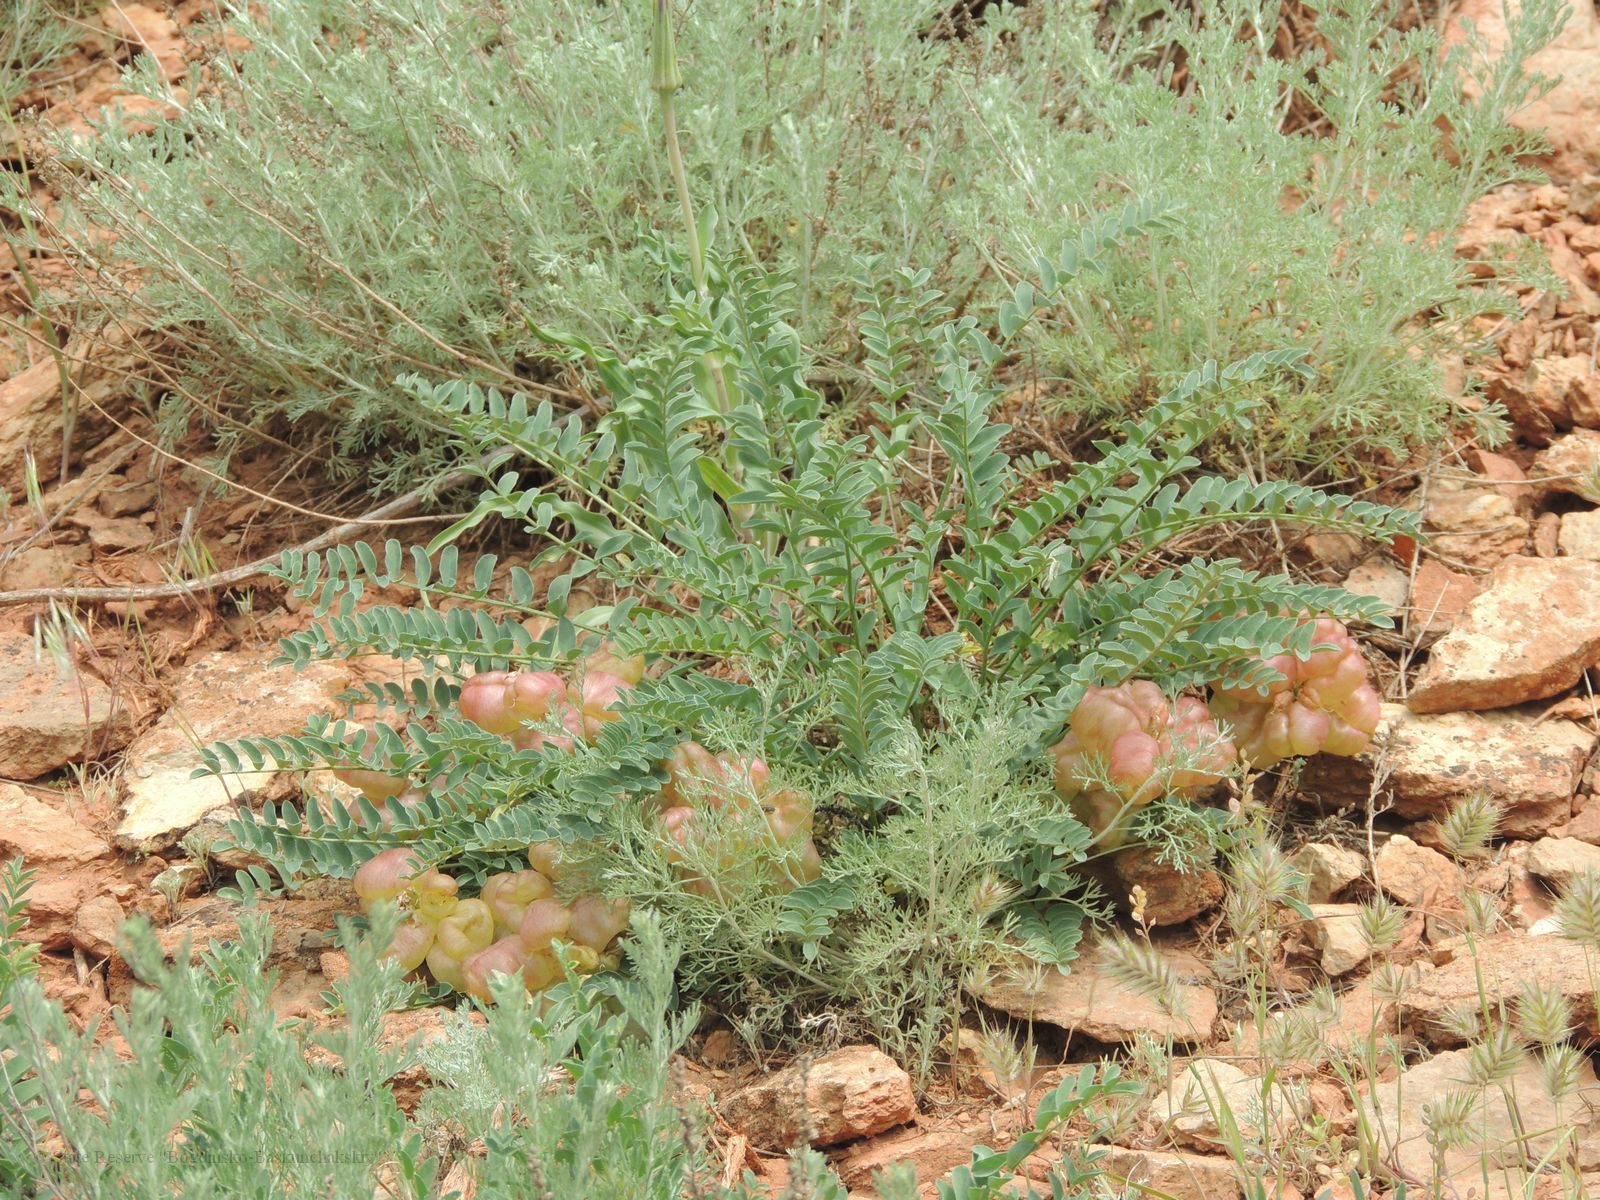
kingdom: Plantae
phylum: Tracheophyta
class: Magnoliopsida
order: Fabales
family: Fabaceae
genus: Astragalus
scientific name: Astragalus physodes
